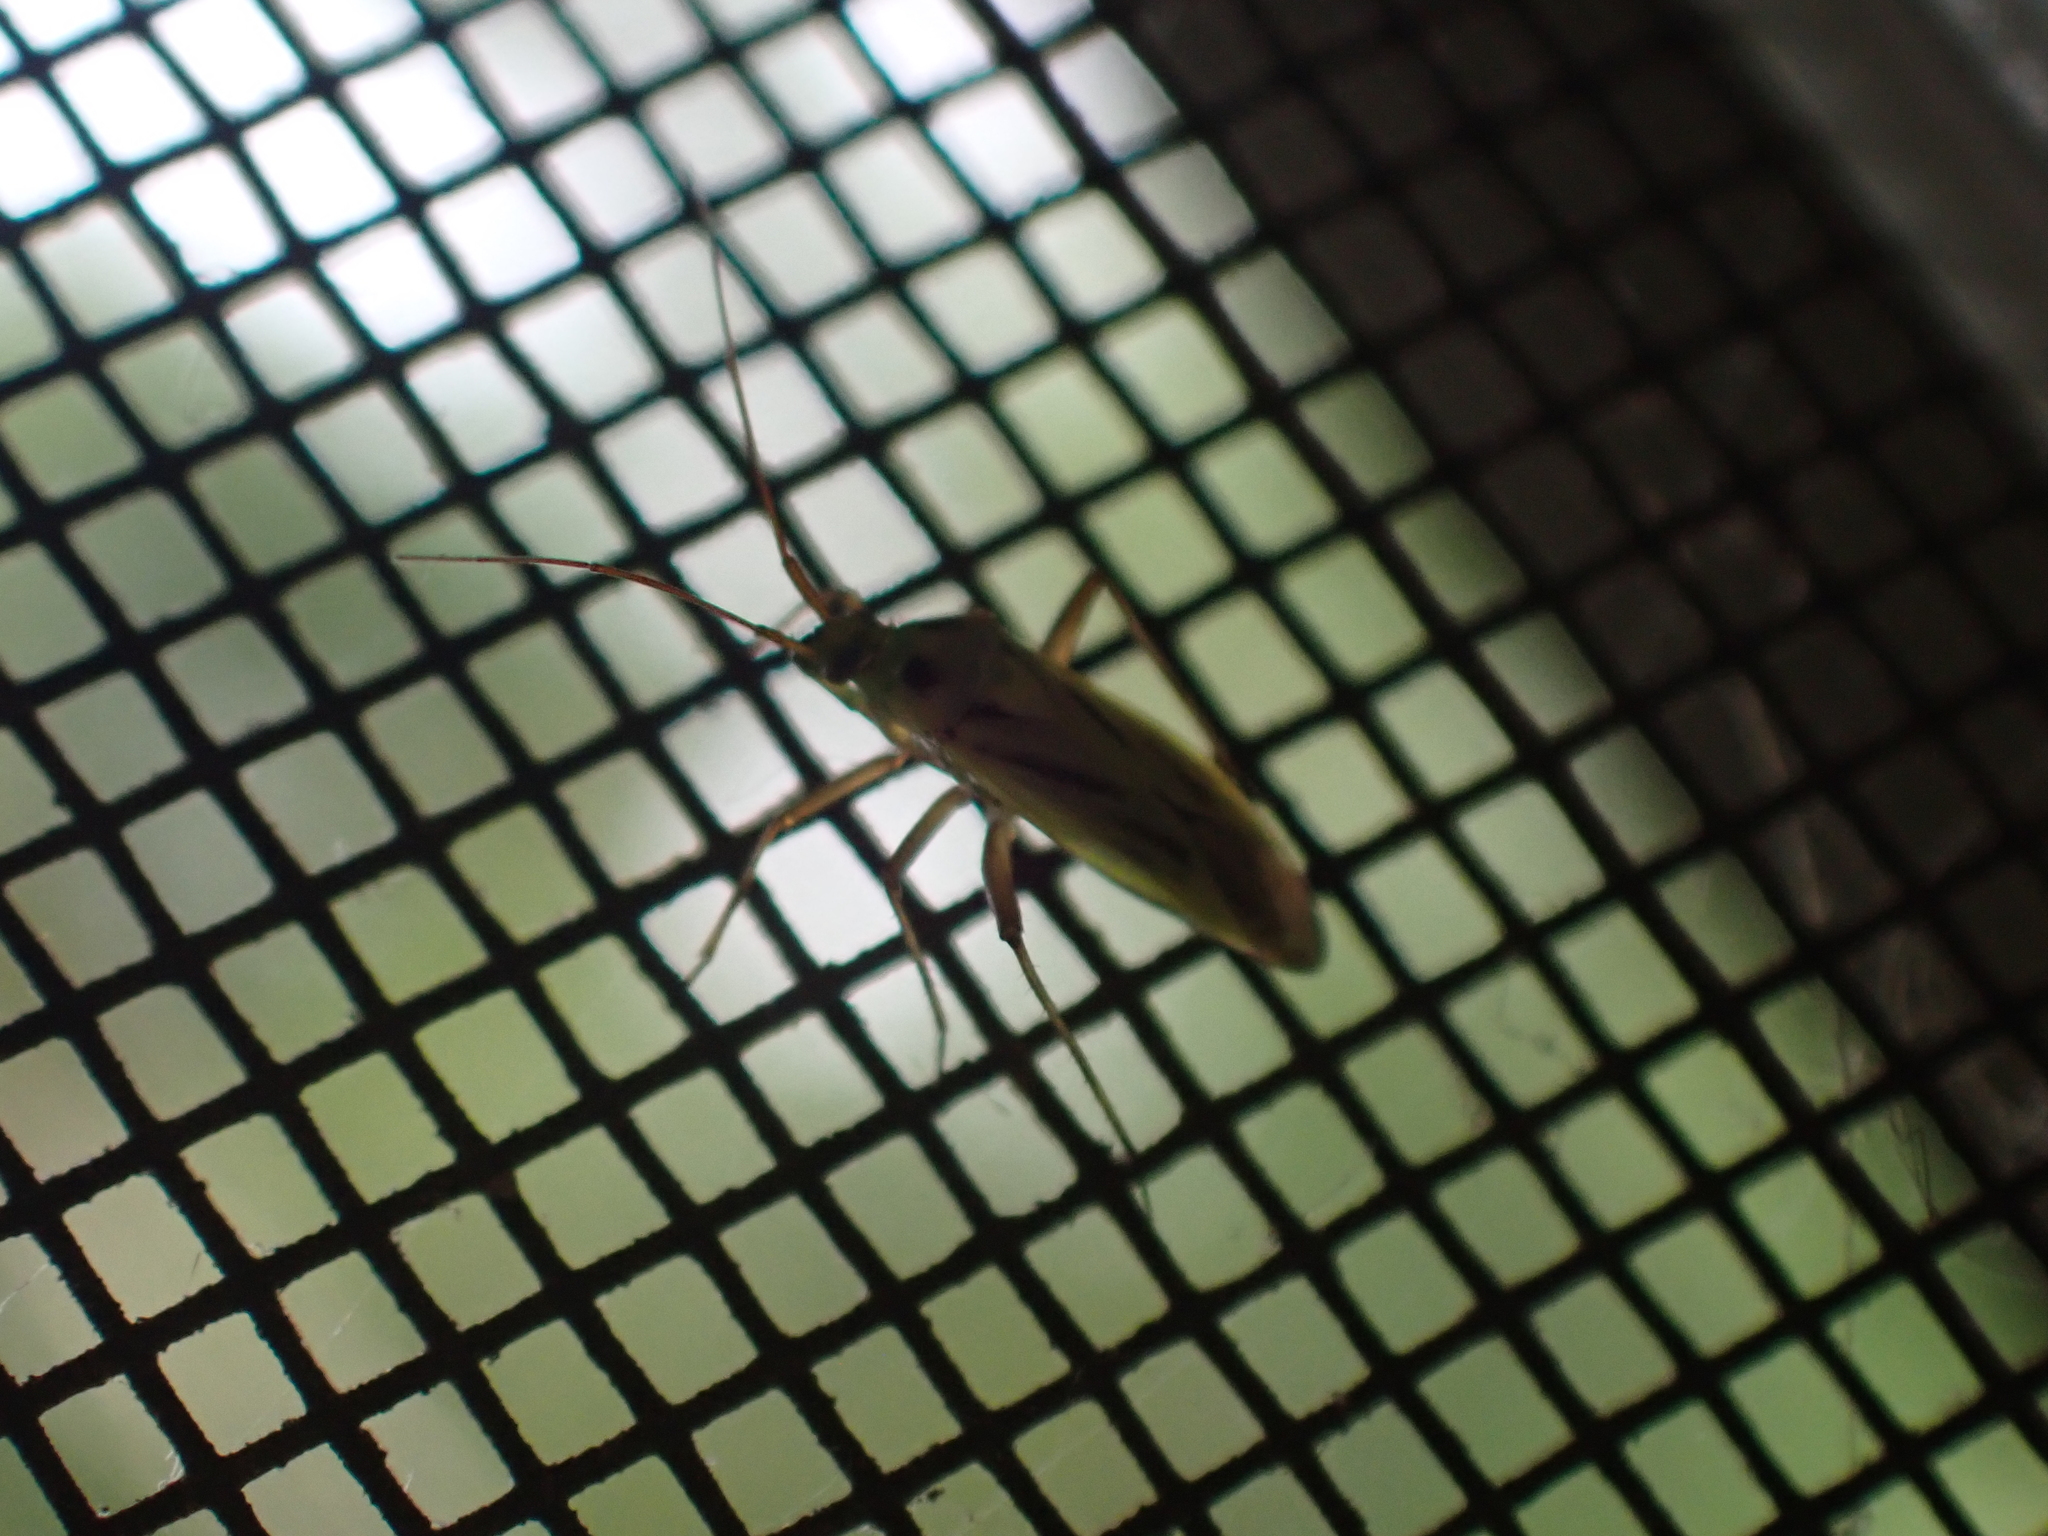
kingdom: Animalia
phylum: Arthropoda
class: Insecta
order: Hemiptera
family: Miridae
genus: Stenotus
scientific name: Stenotus binotatus
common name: Plant bug
